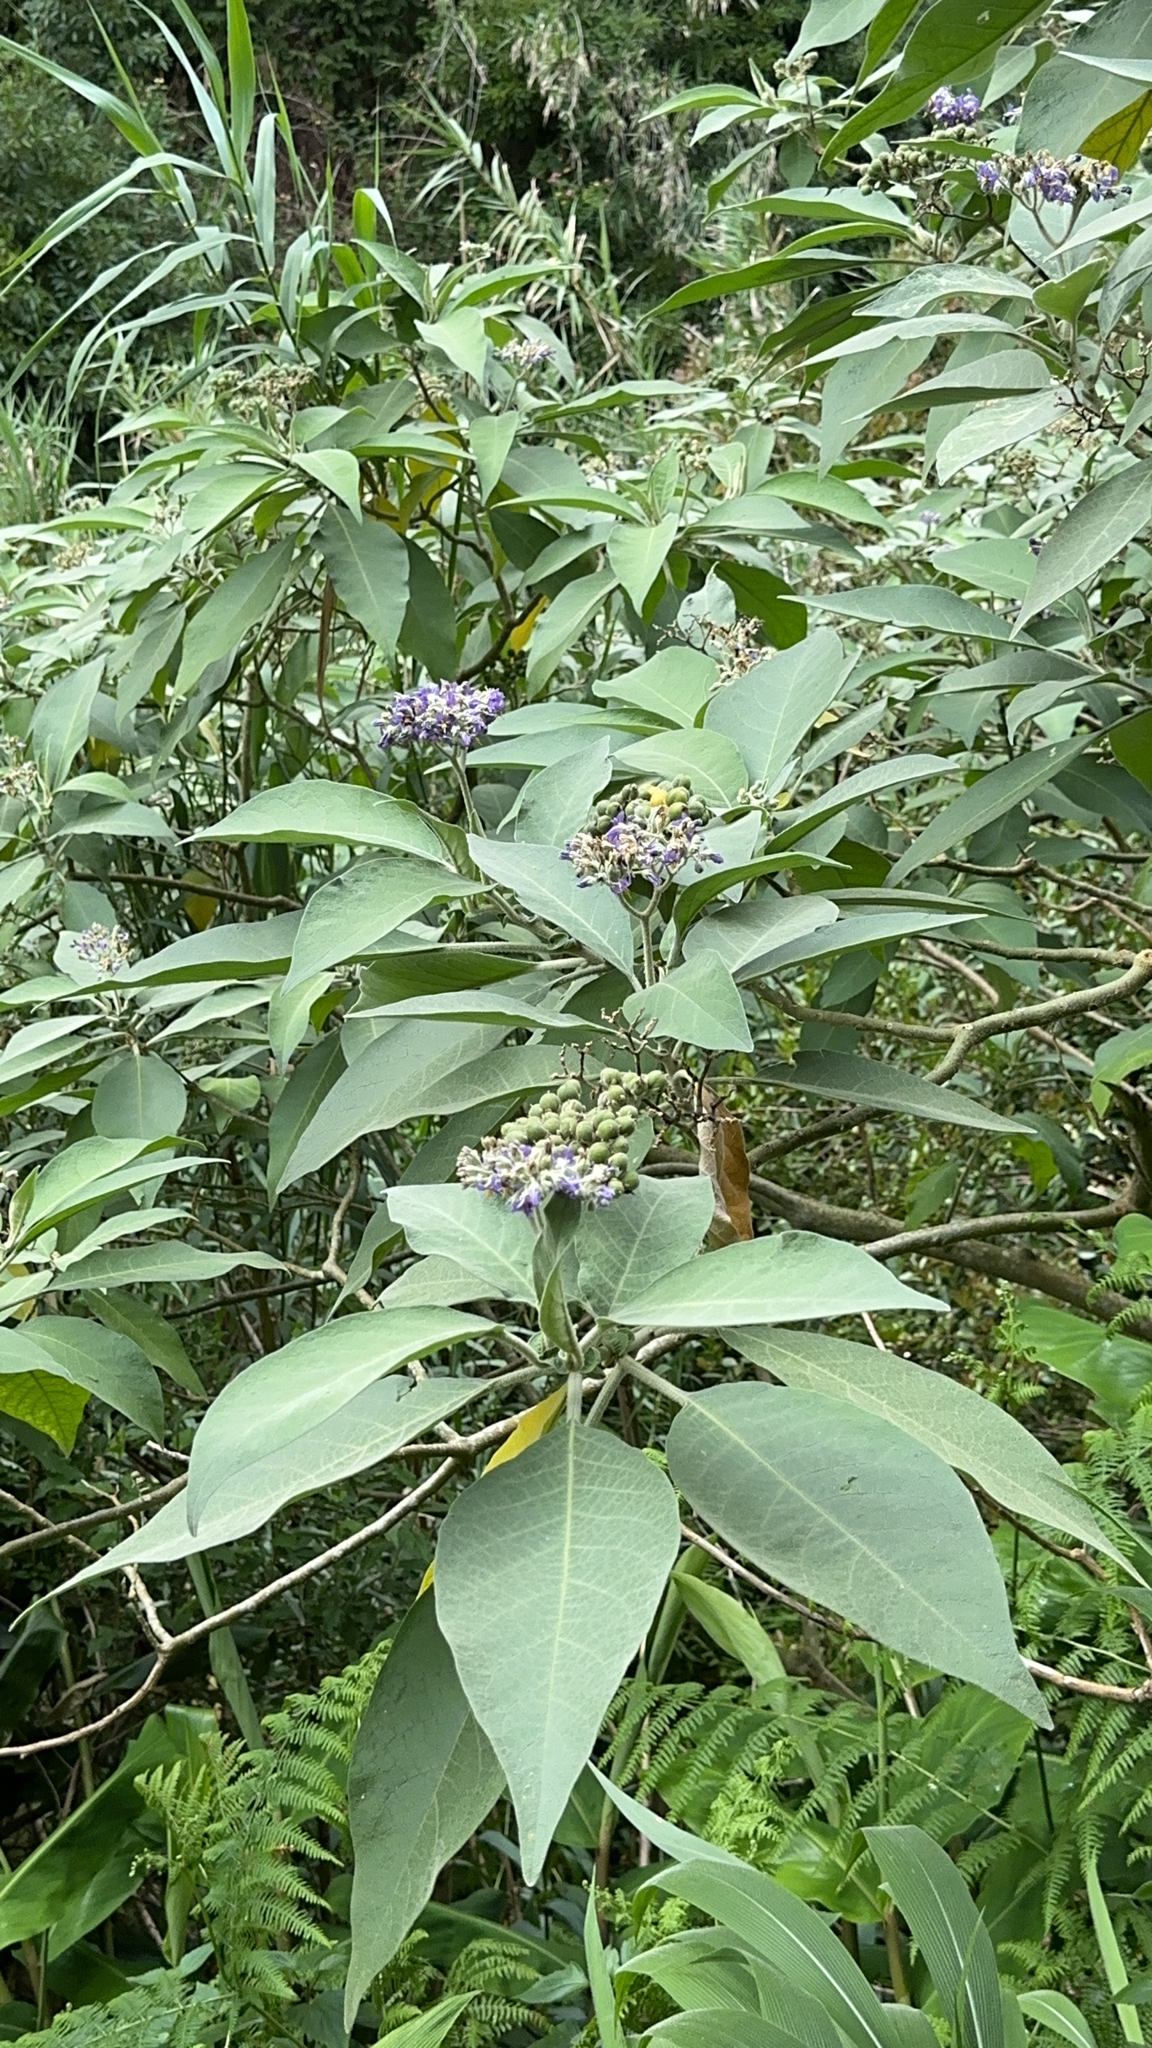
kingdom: Plantae
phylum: Tracheophyta
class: Magnoliopsida
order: Solanales
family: Solanaceae
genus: Solanum
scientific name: Solanum mauritianum
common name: Earleaf nightshade
